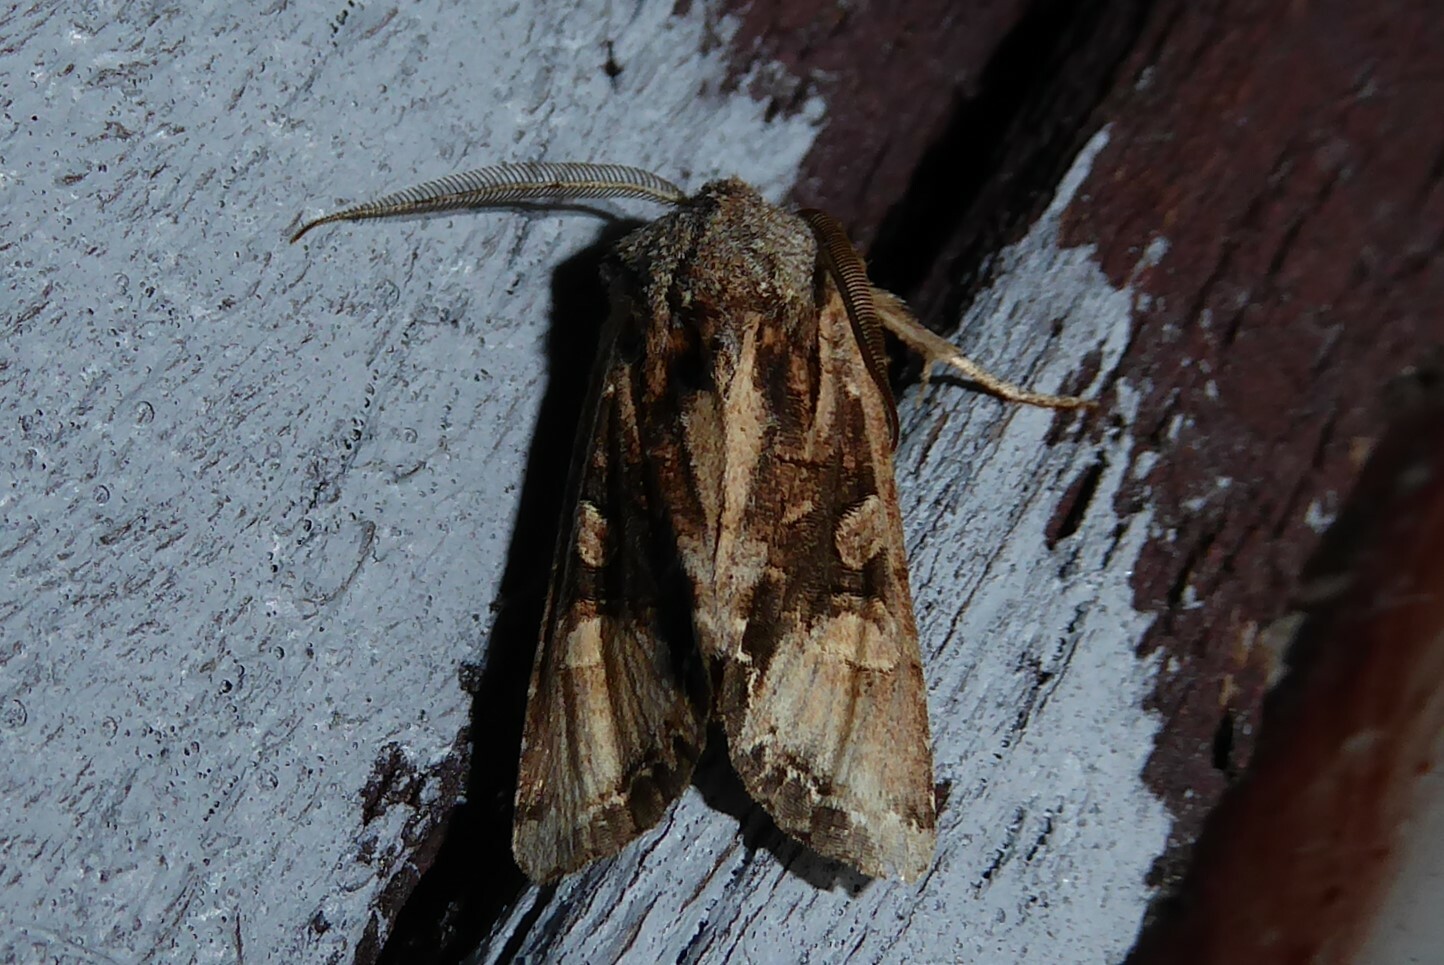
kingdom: Animalia
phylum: Arthropoda
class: Insecta
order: Lepidoptera
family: Noctuidae
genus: Ichneutica
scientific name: Ichneutica
